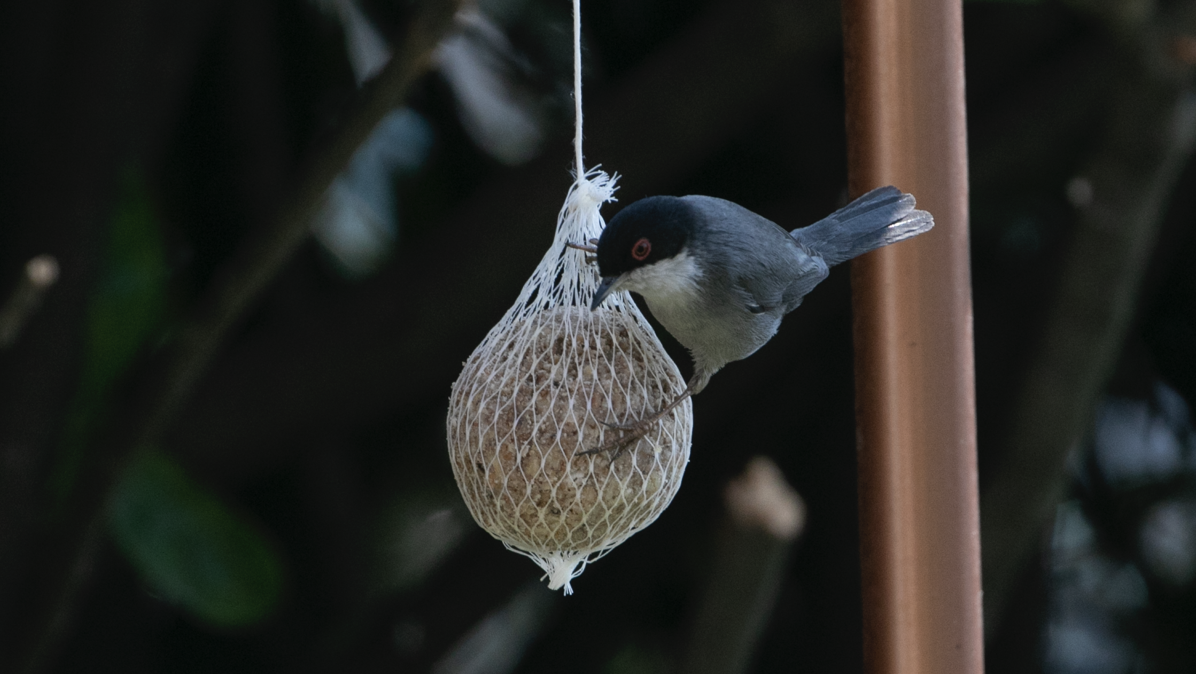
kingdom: Animalia
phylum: Chordata
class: Aves
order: Passeriformes
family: Sylviidae
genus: Curruca
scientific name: Curruca melanocephala
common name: Sardinian warbler
